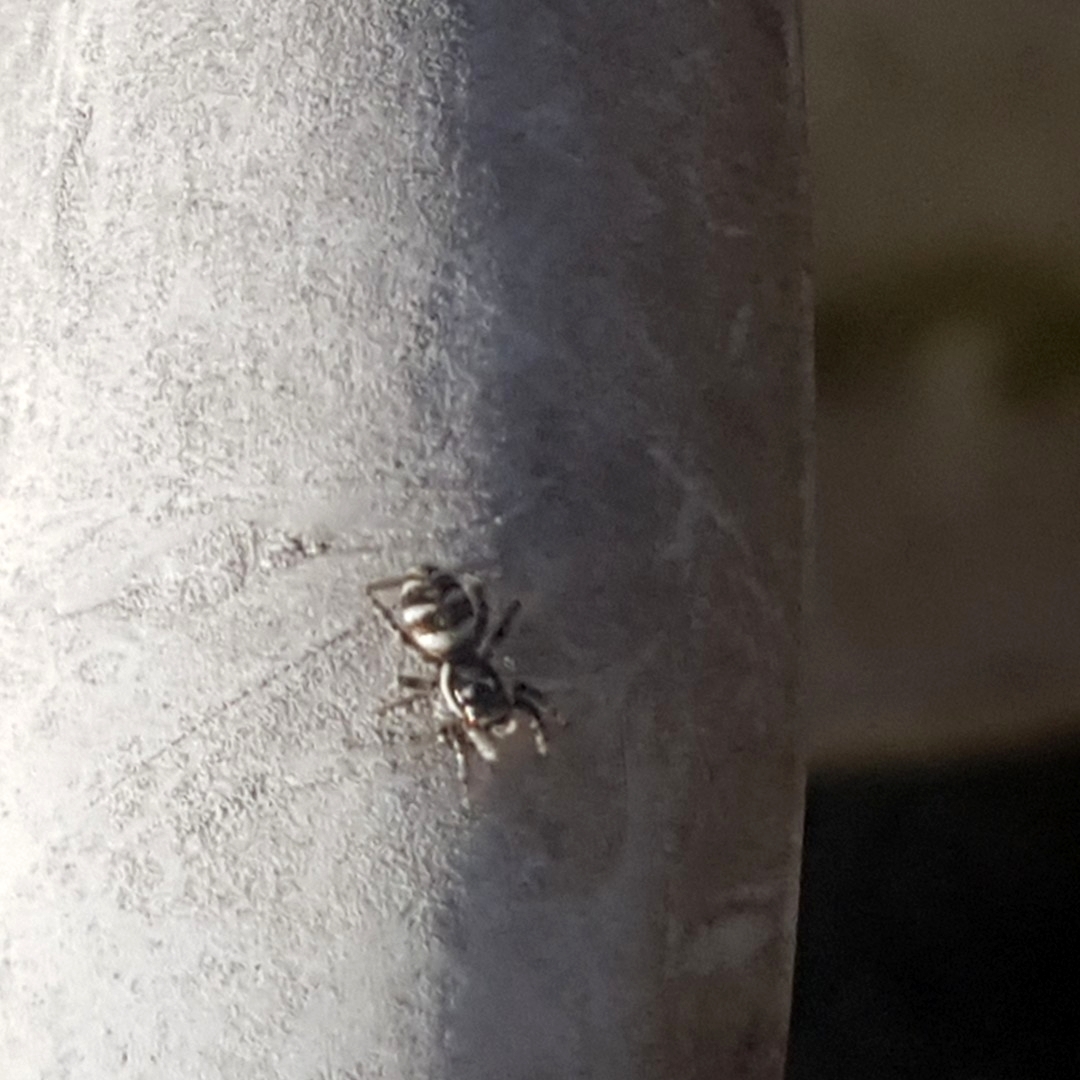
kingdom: Animalia
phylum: Arthropoda
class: Arachnida
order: Araneae
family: Salticidae
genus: Salticus
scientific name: Salticus scenicus
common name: Zebra jumper
